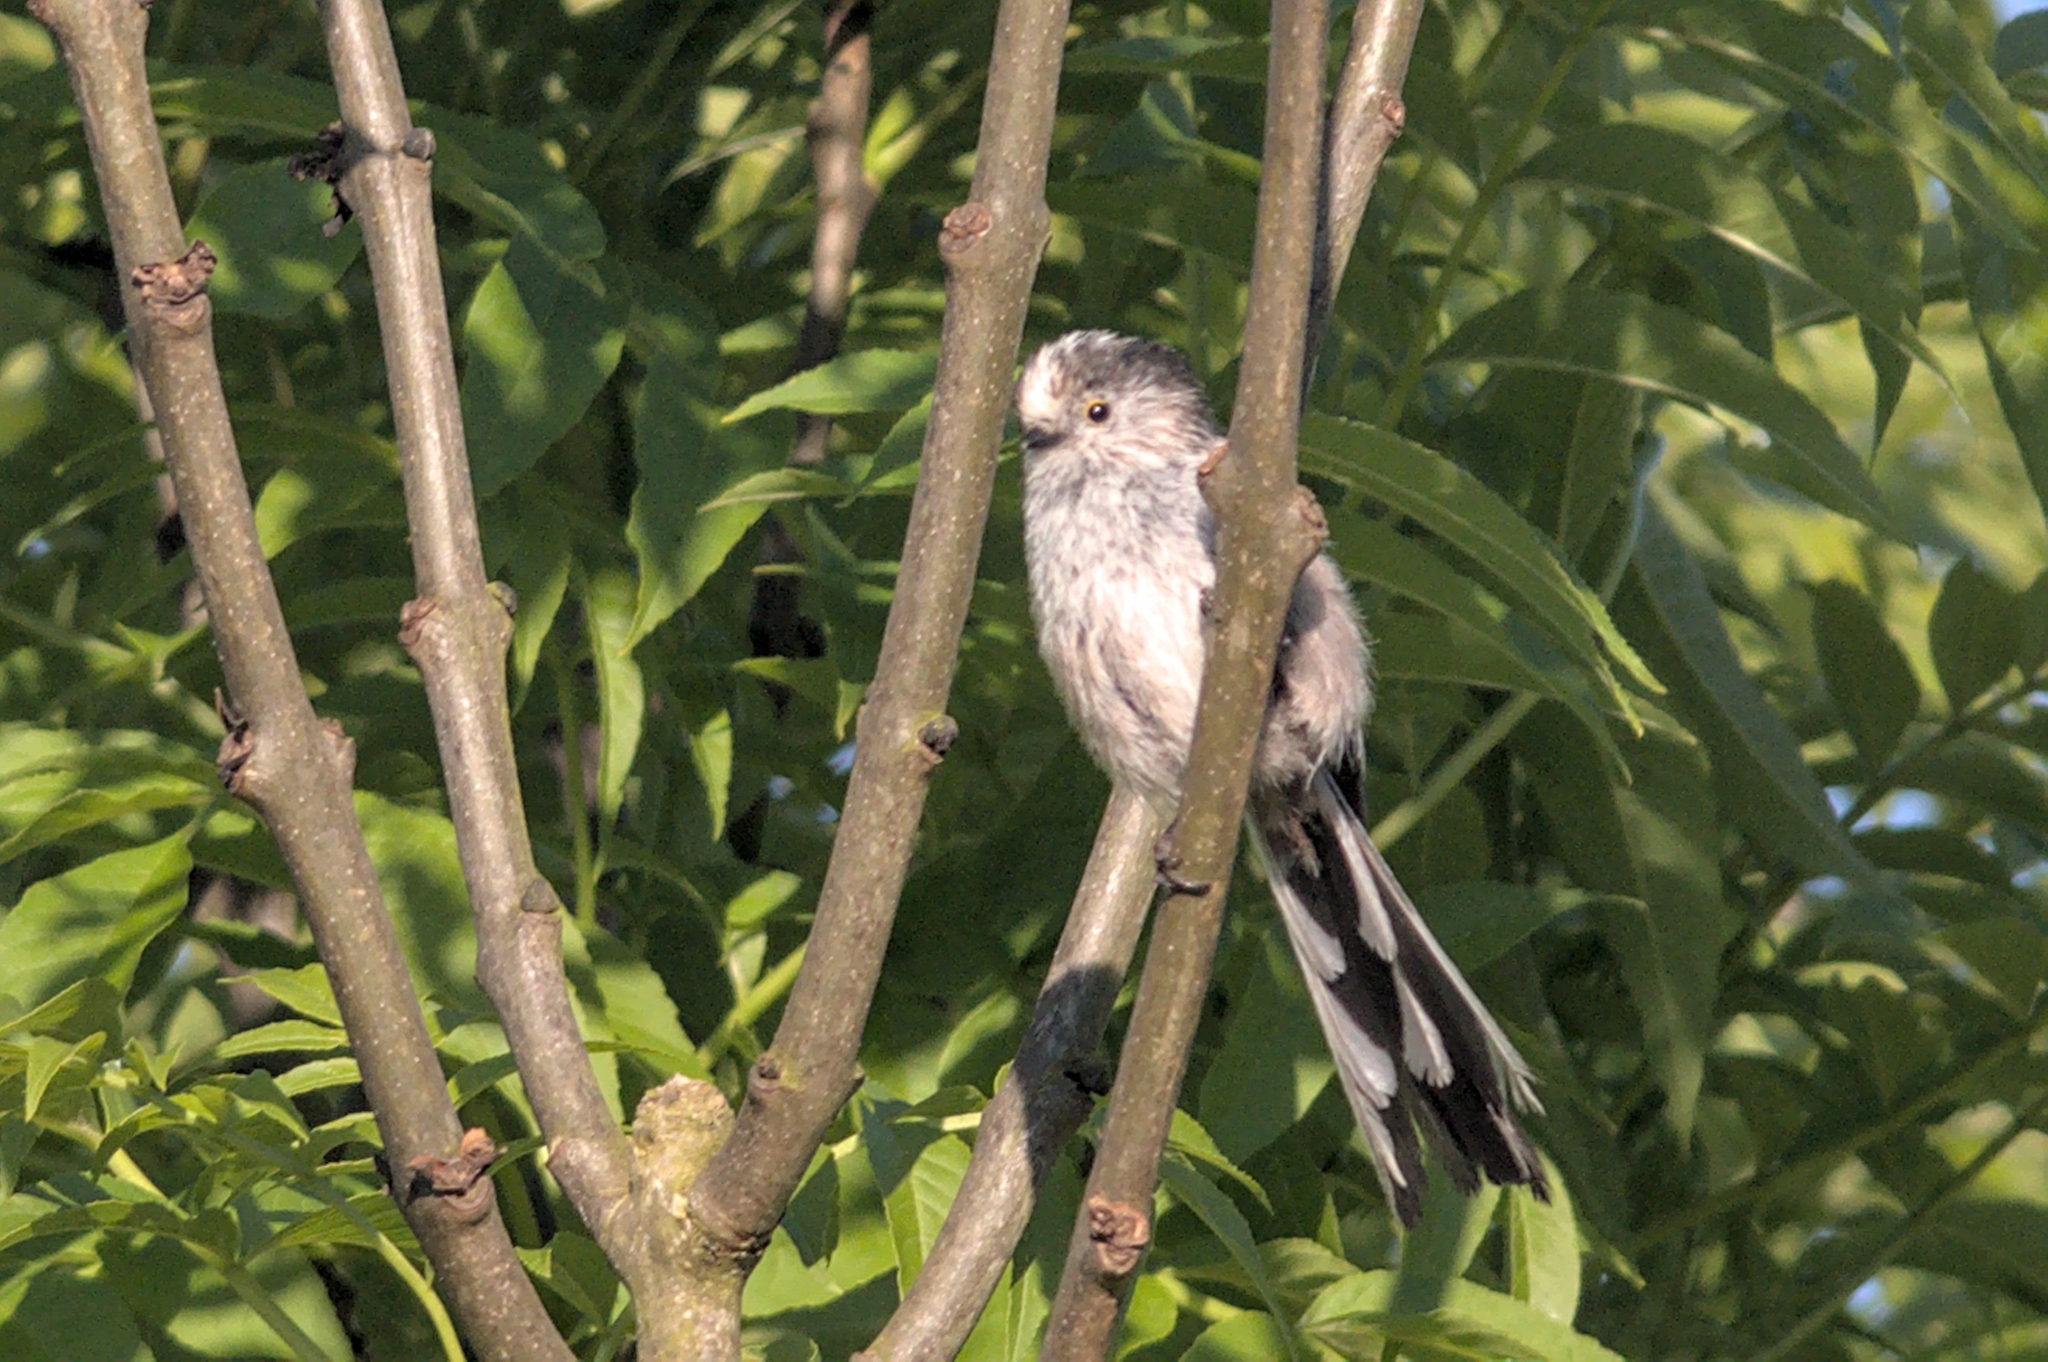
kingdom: Animalia
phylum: Chordata
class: Aves
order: Passeriformes
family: Aegithalidae
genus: Aegithalos
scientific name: Aegithalos caudatus
